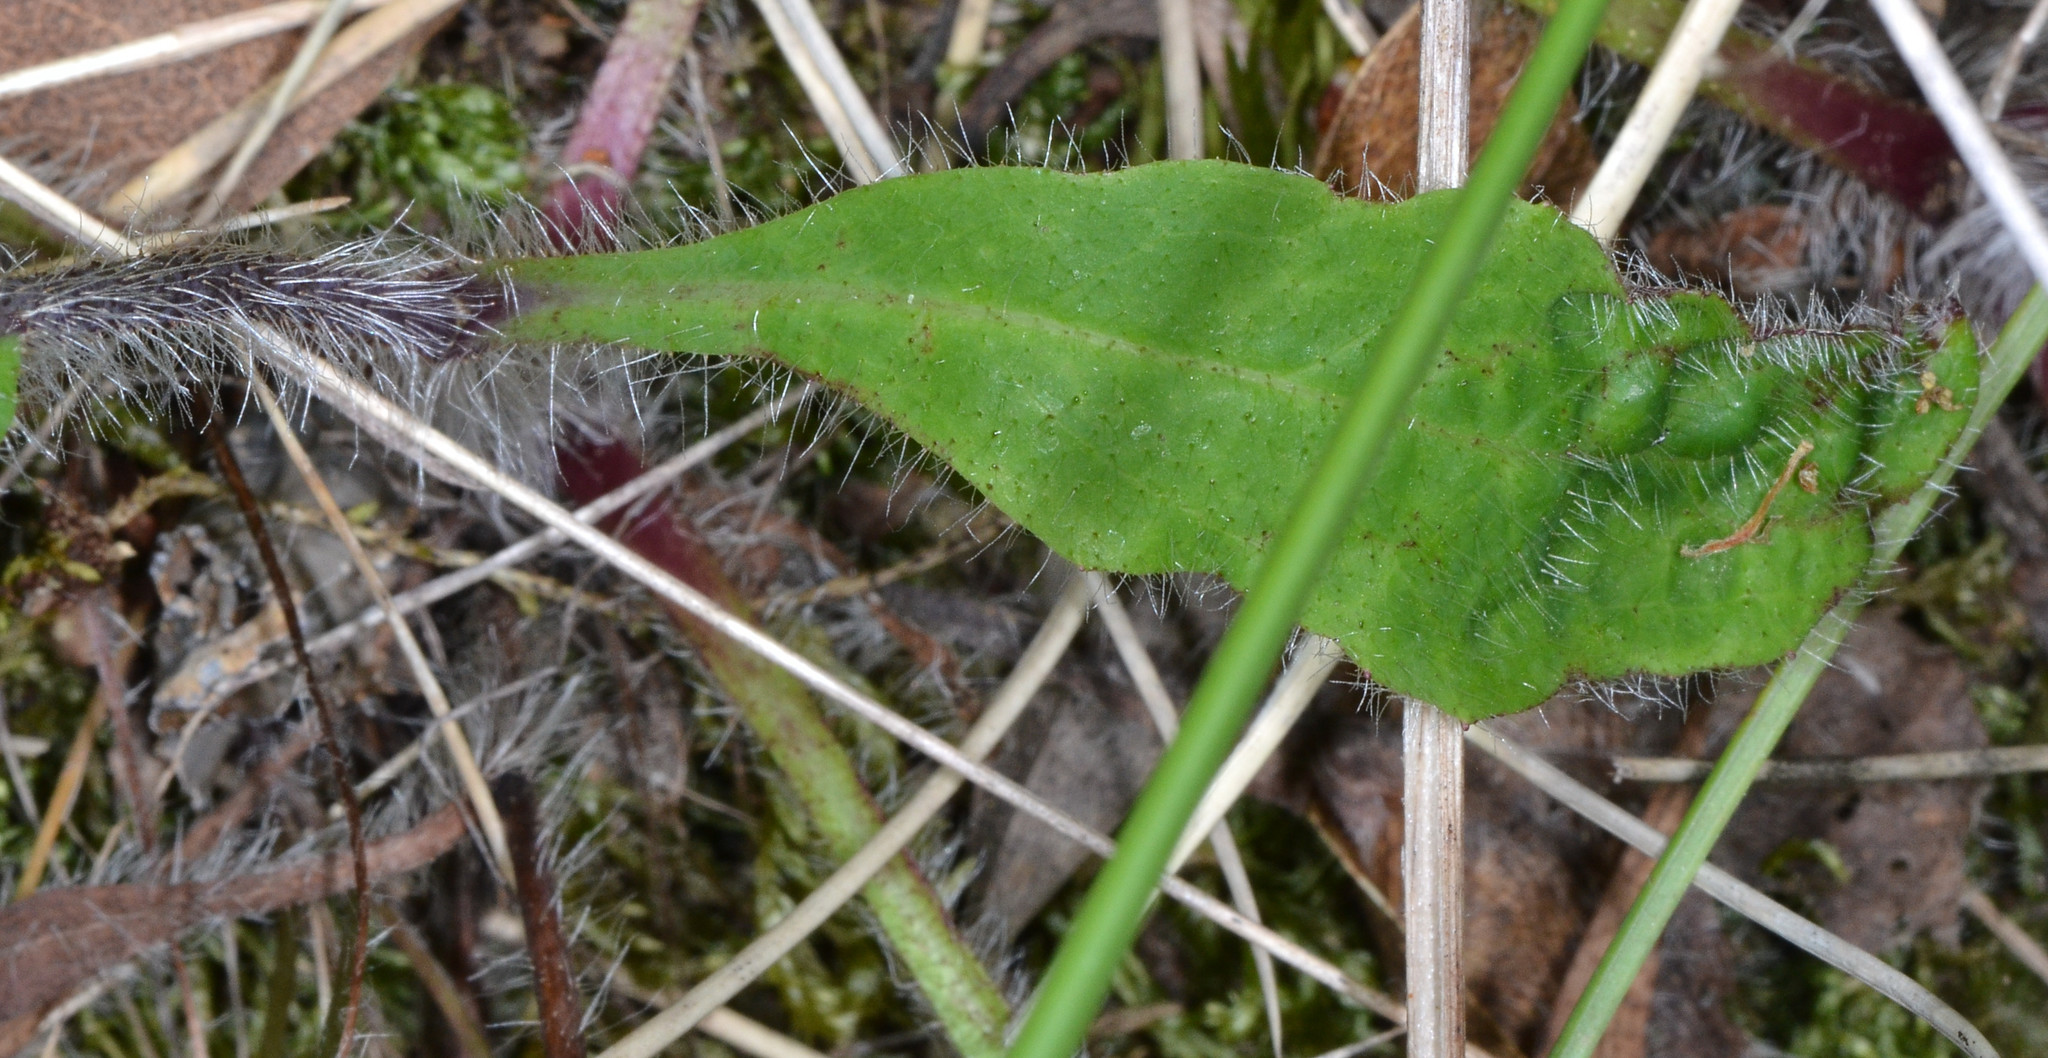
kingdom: Plantae
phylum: Tracheophyta
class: Magnoliopsida
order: Asterales
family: Asteraceae
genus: Hieracium
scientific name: Hieracium albiflorum
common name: White hawkweed
